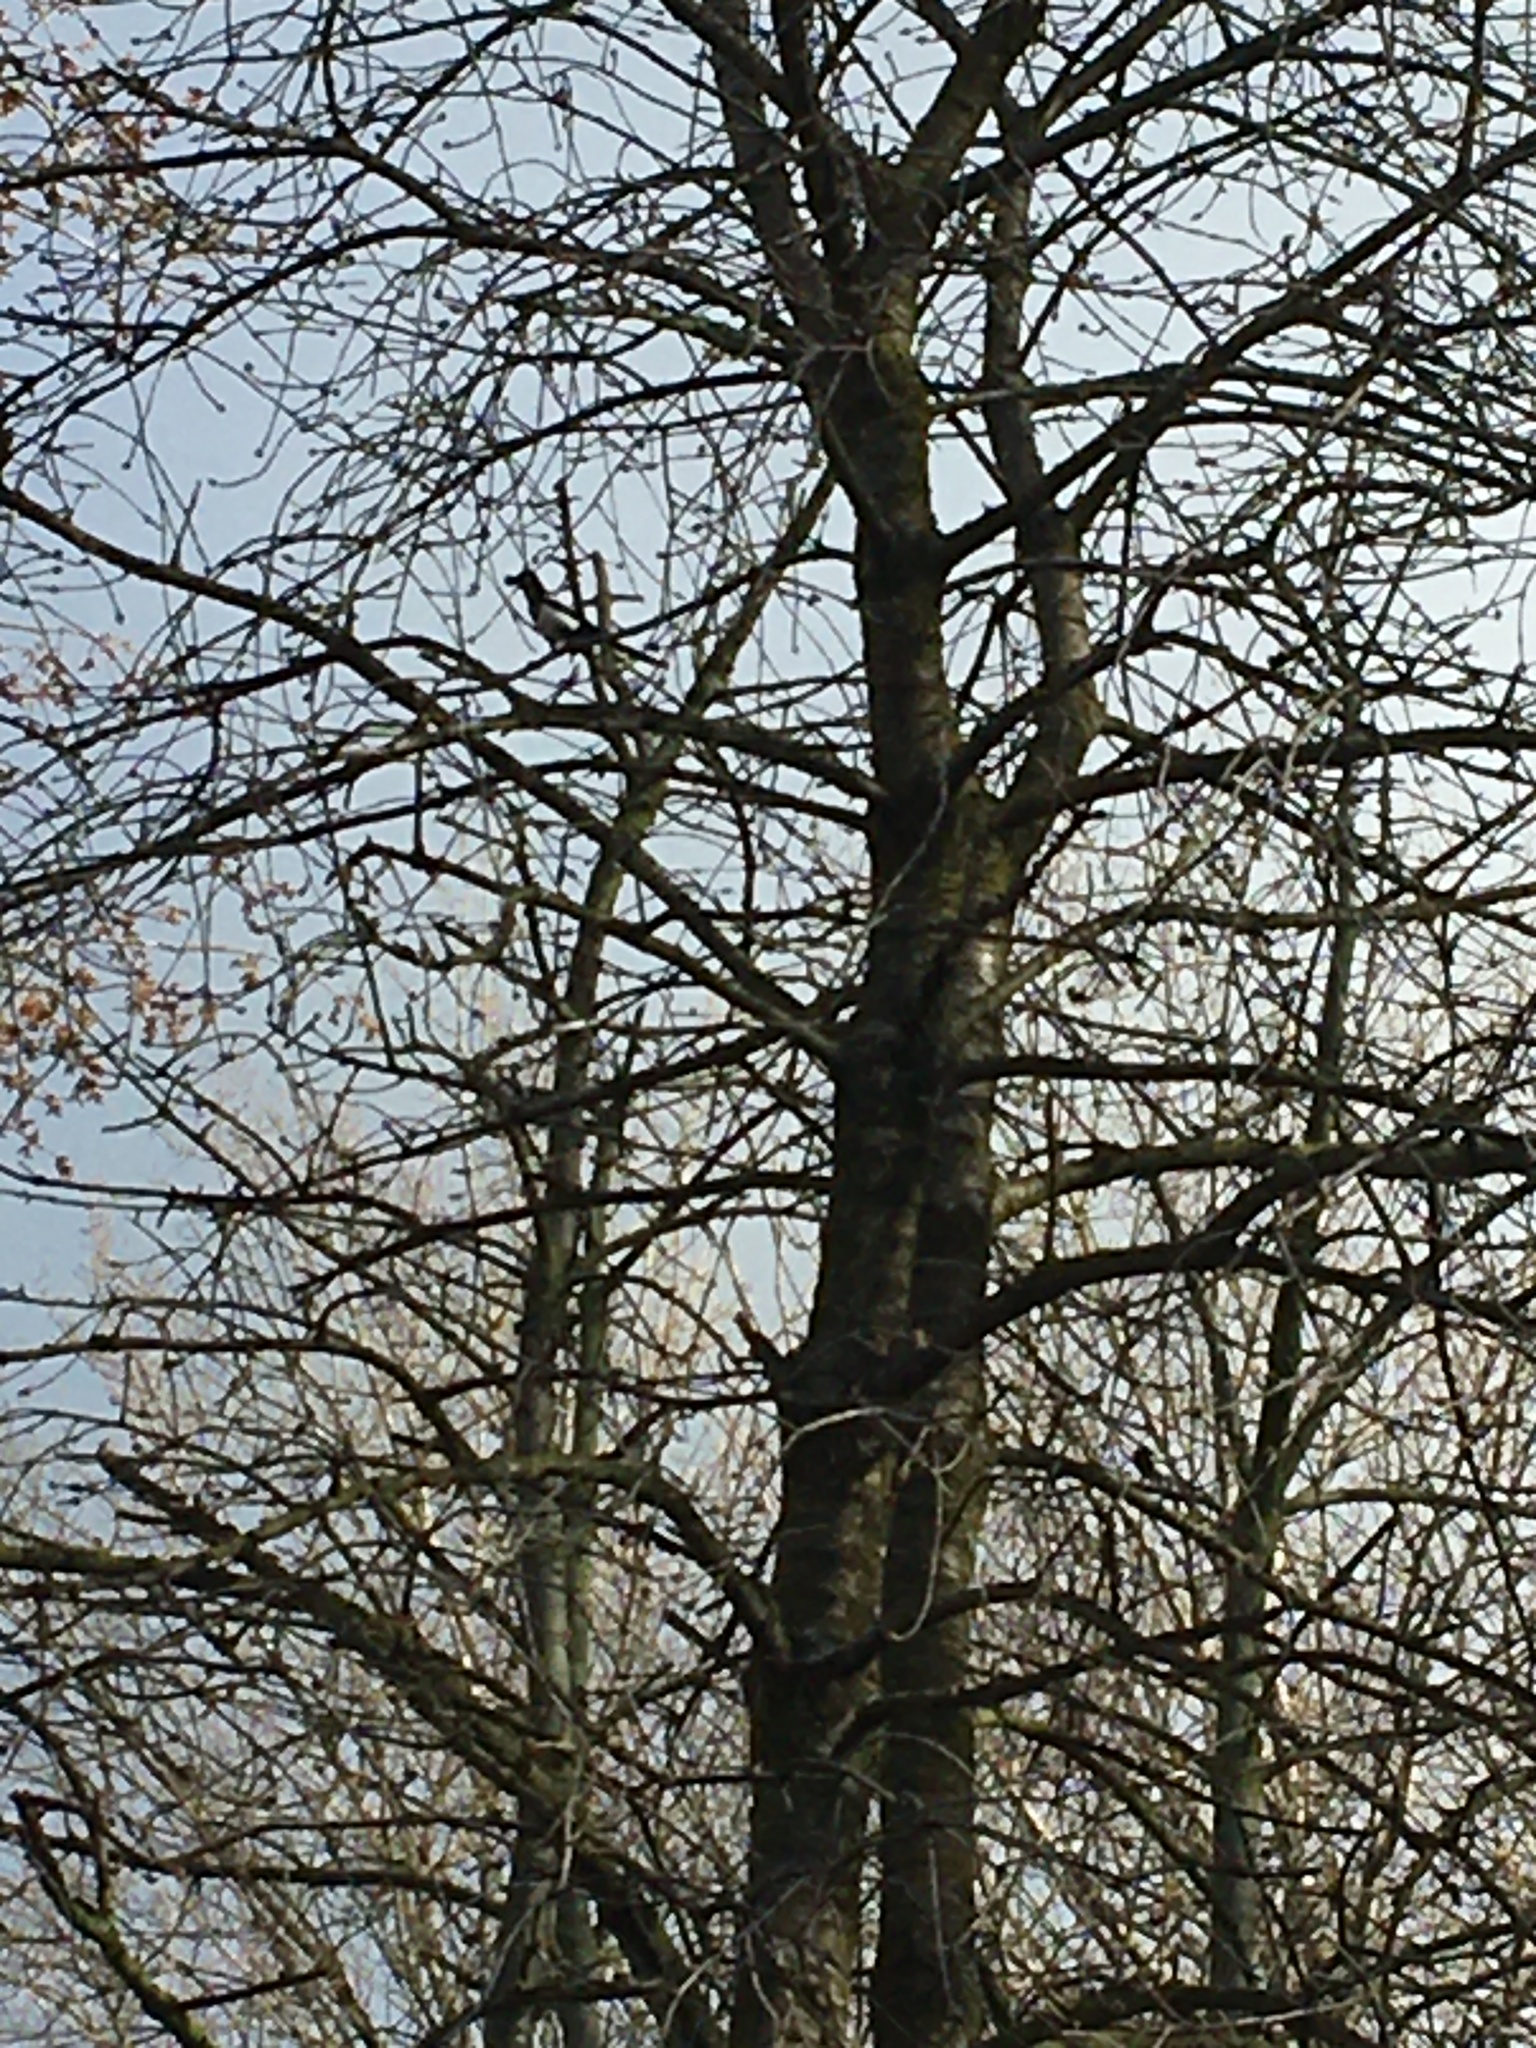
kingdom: Animalia
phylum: Chordata
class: Aves
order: Passeriformes
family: Corvidae
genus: Pica
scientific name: Pica pica
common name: Eurasian magpie
